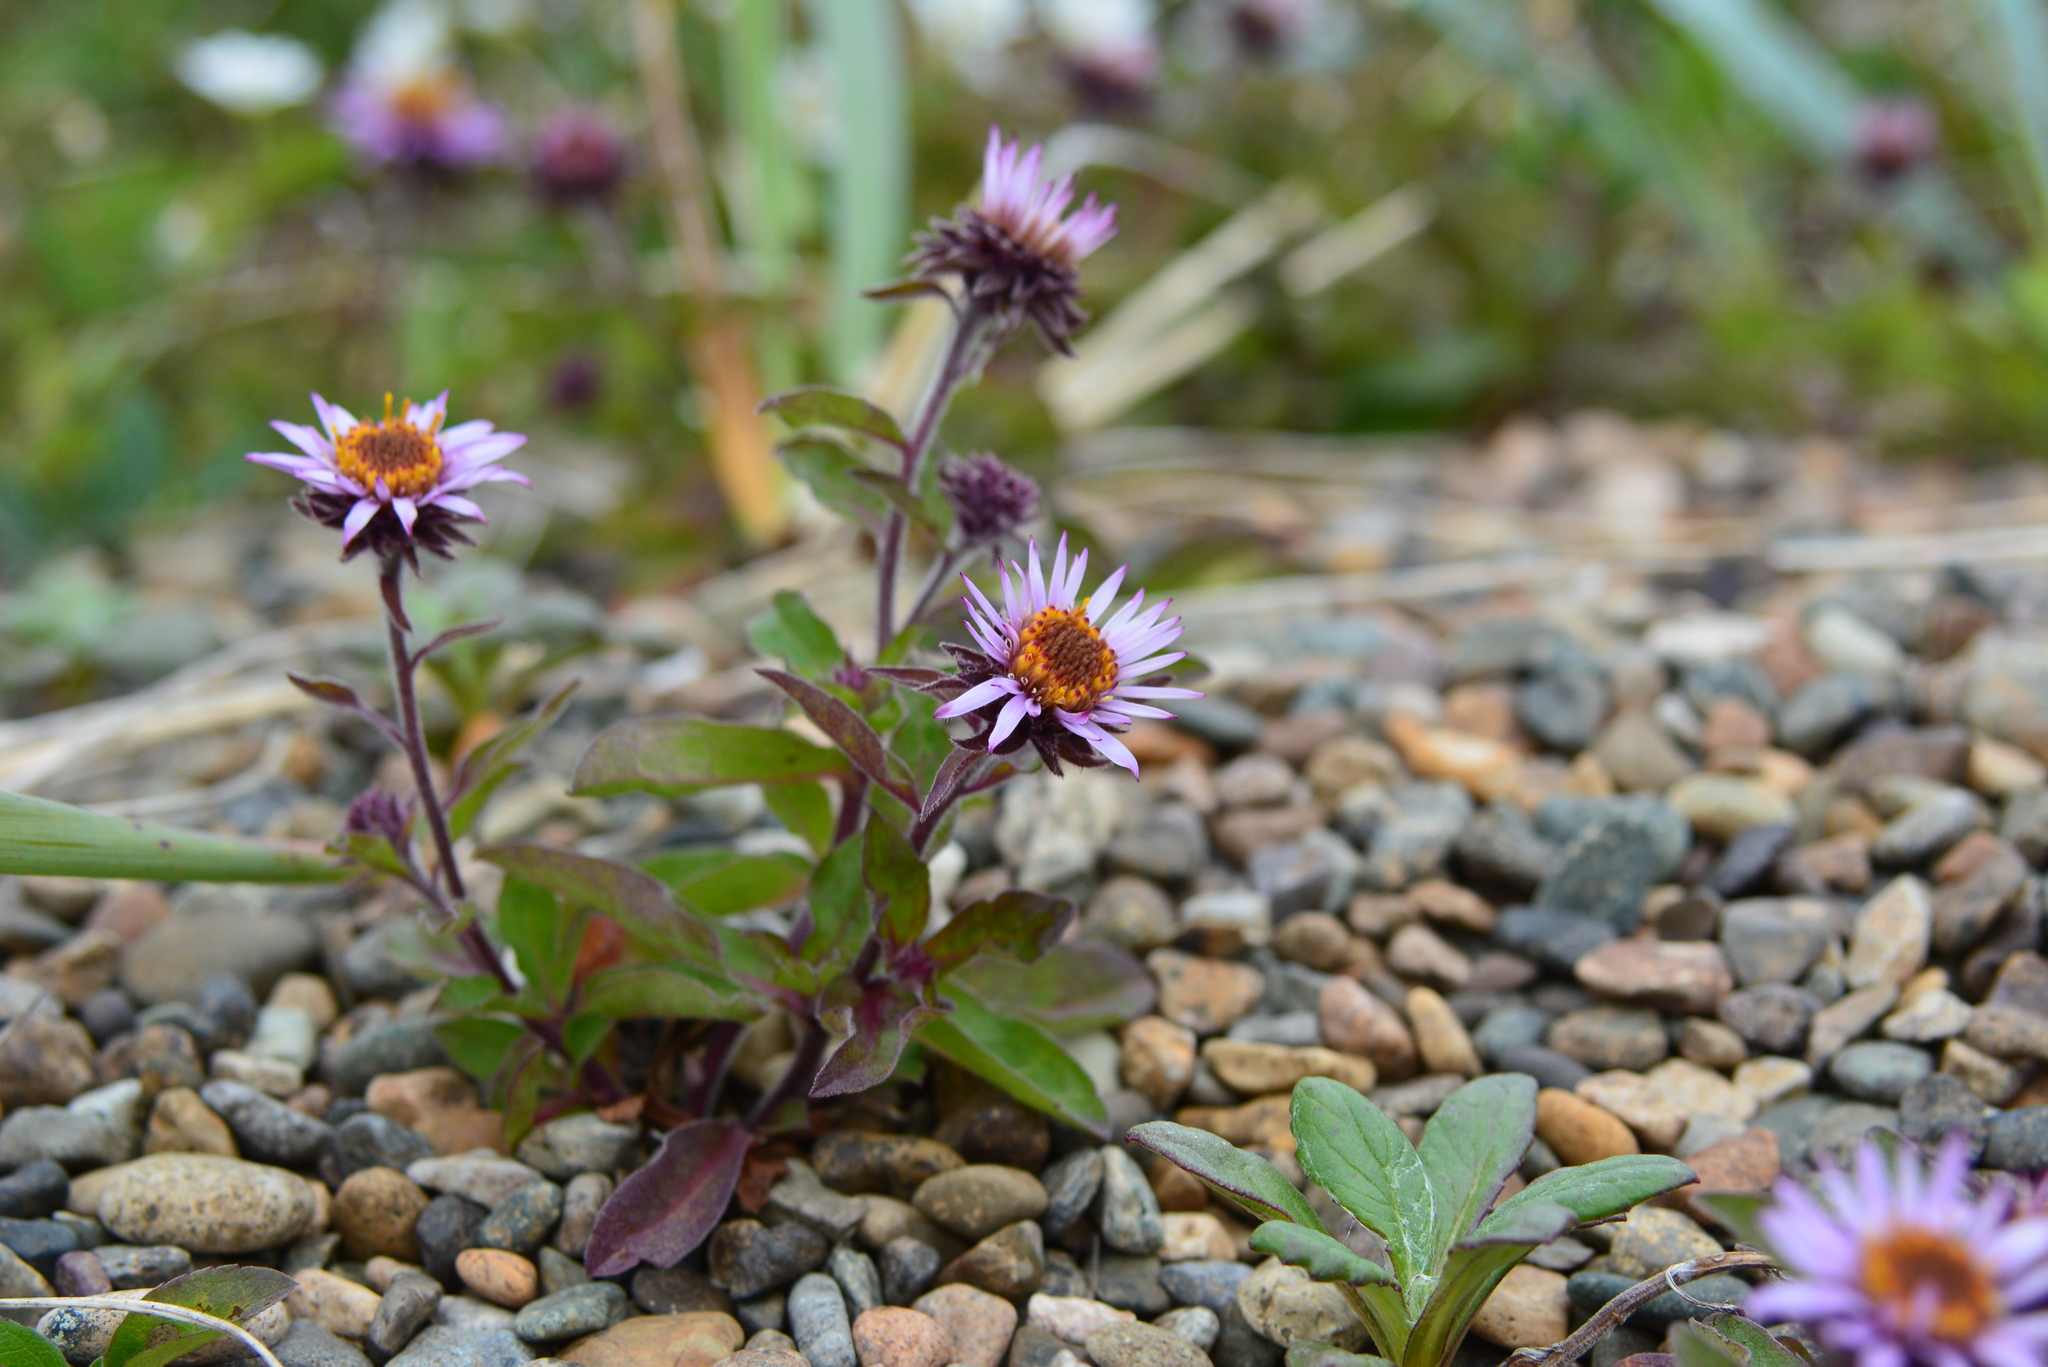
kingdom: Plantae
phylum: Tracheophyta
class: Magnoliopsida
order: Asterales
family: Asteraceae
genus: Eurybia
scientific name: Eurybia sibirica
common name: Arctic aster
